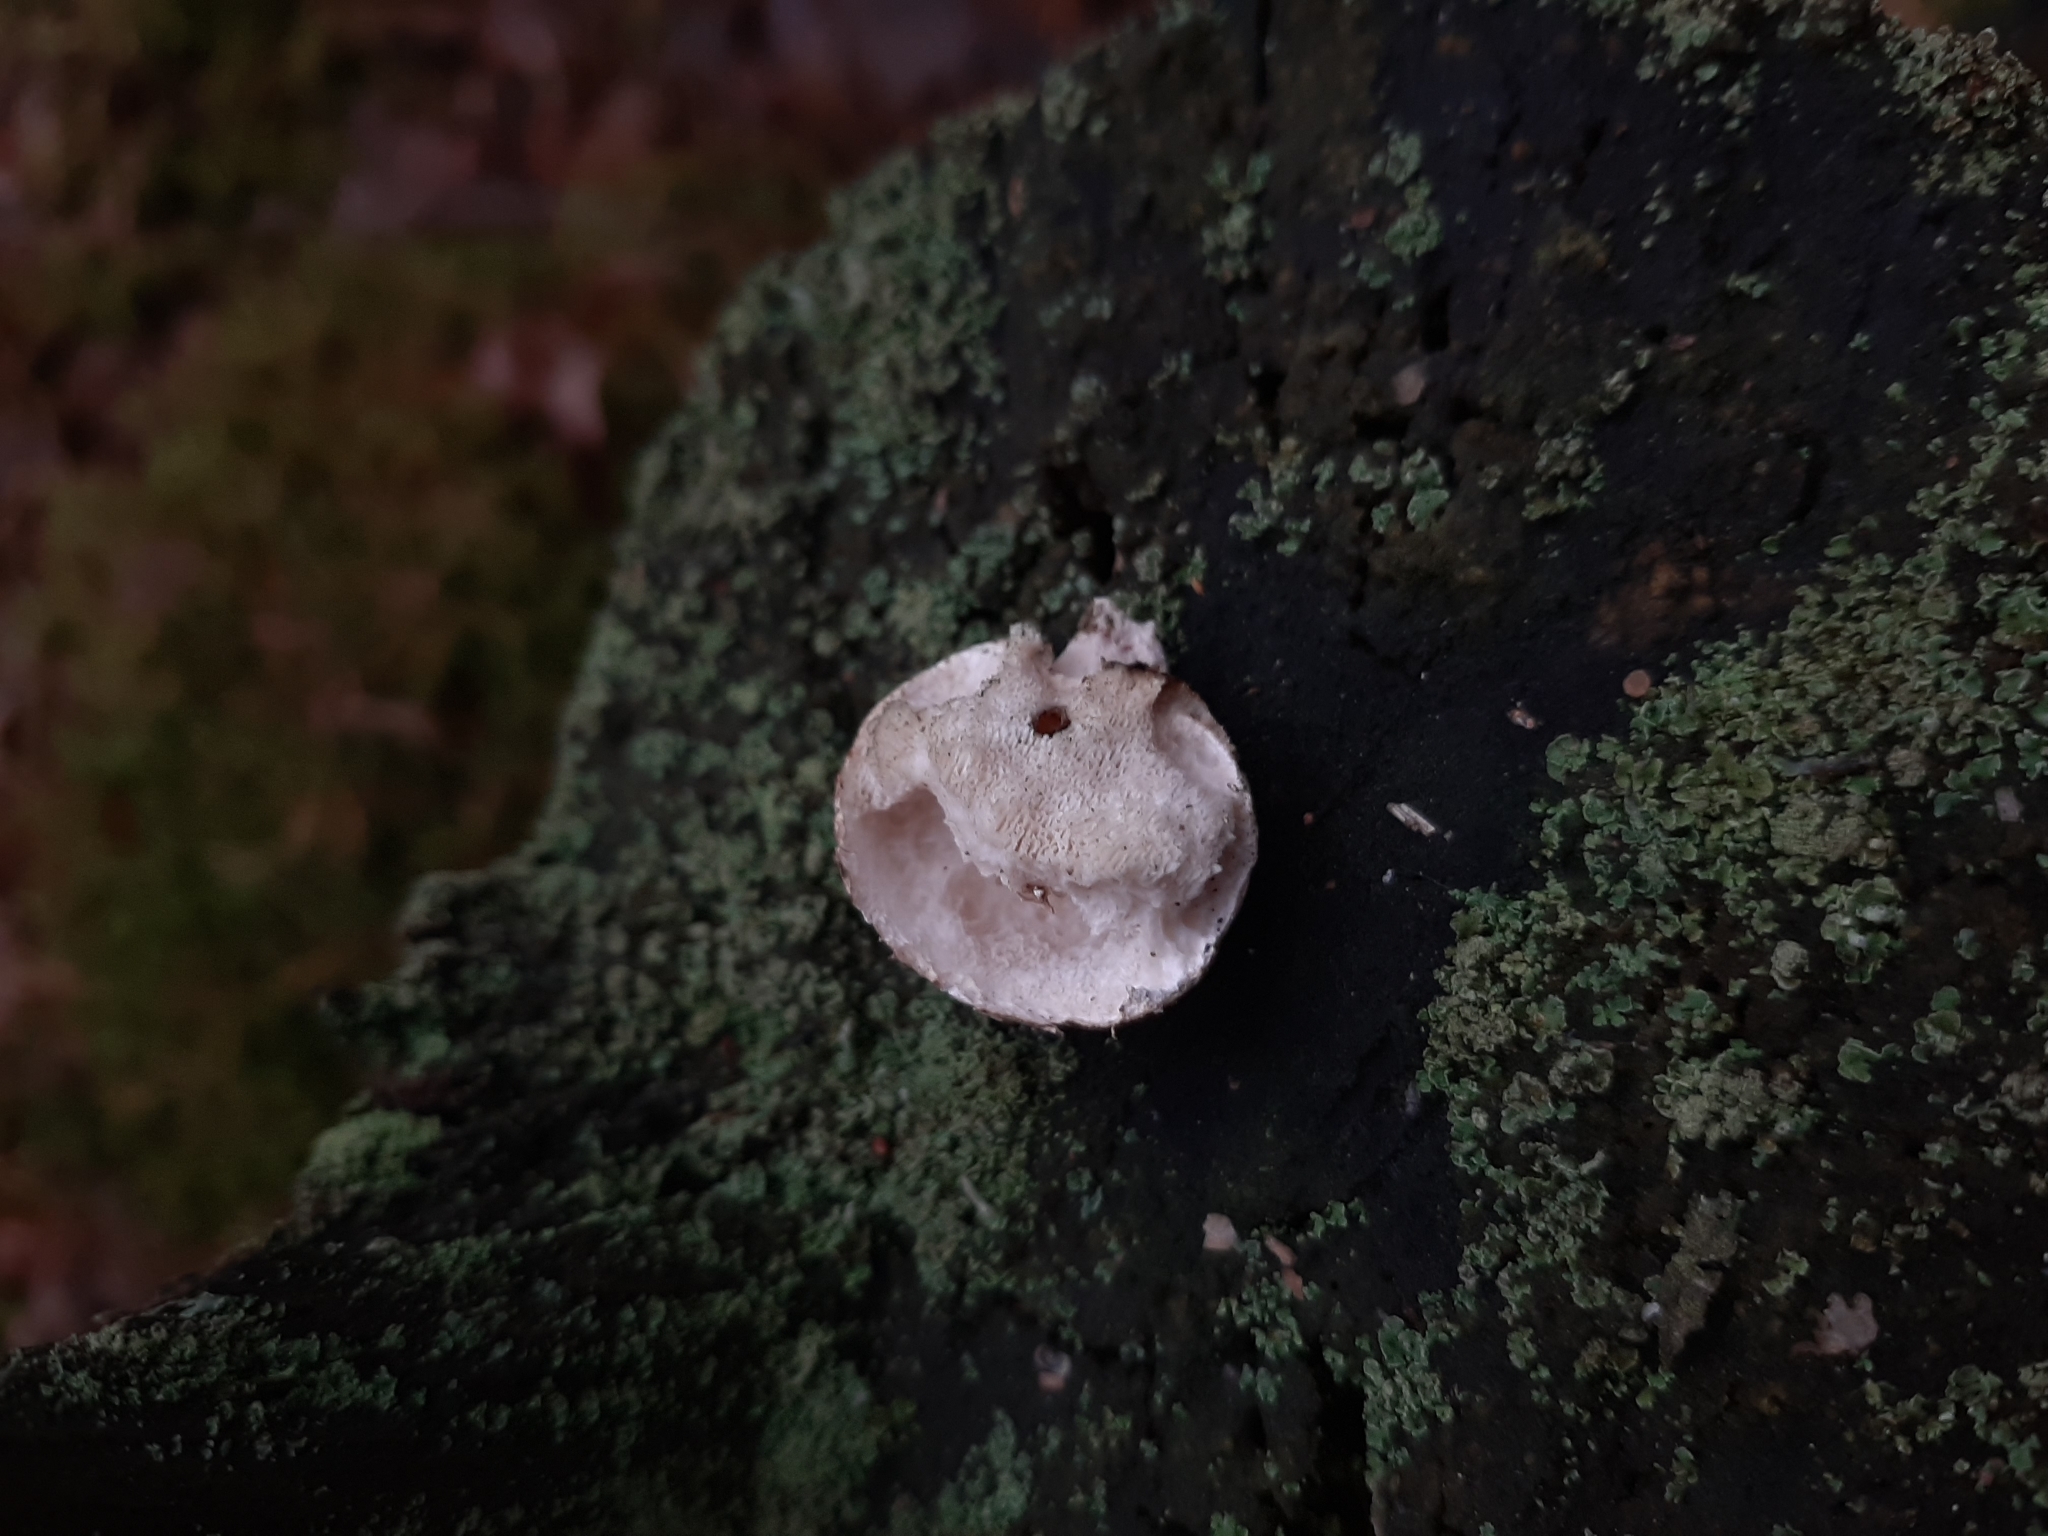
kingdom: Fungi
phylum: Basidiomycota
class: Agaricomycetes
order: Polyporales
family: Fomitopsidaceae
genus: Fomitopsis
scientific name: Fomitopsis betulina
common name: Birch polypore
